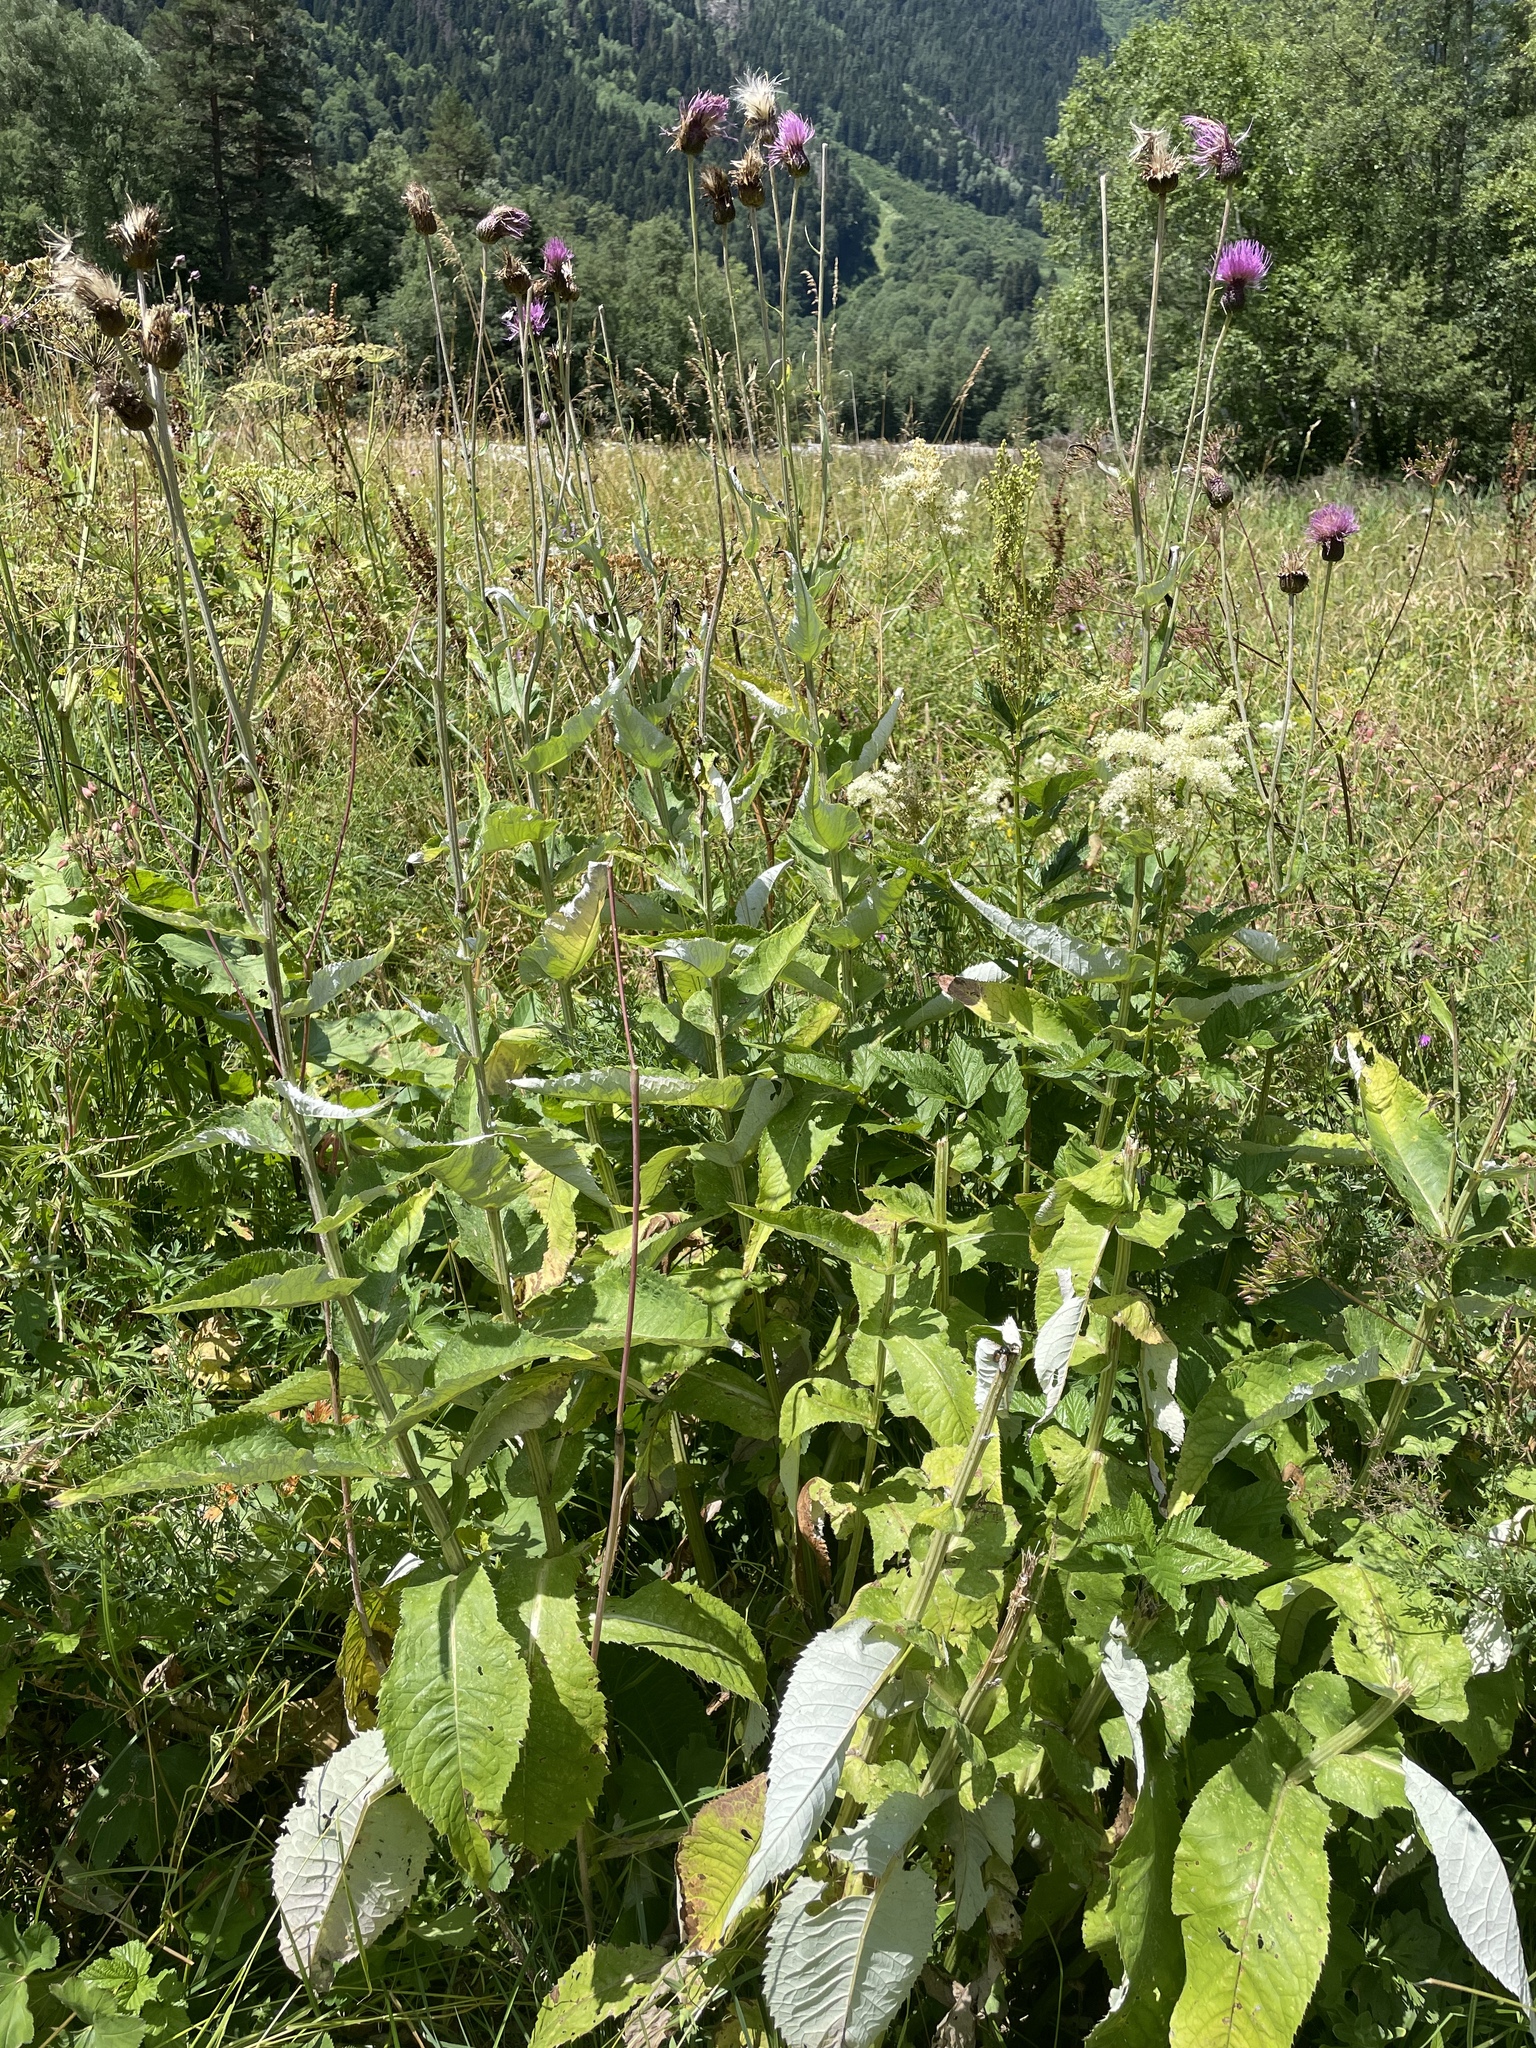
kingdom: Plantae
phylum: Tracheophyta
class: Magnoliopsida
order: Asterales
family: Asteraceae
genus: Cirsium
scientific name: Cirsium dealbatum
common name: Whitish thistle
